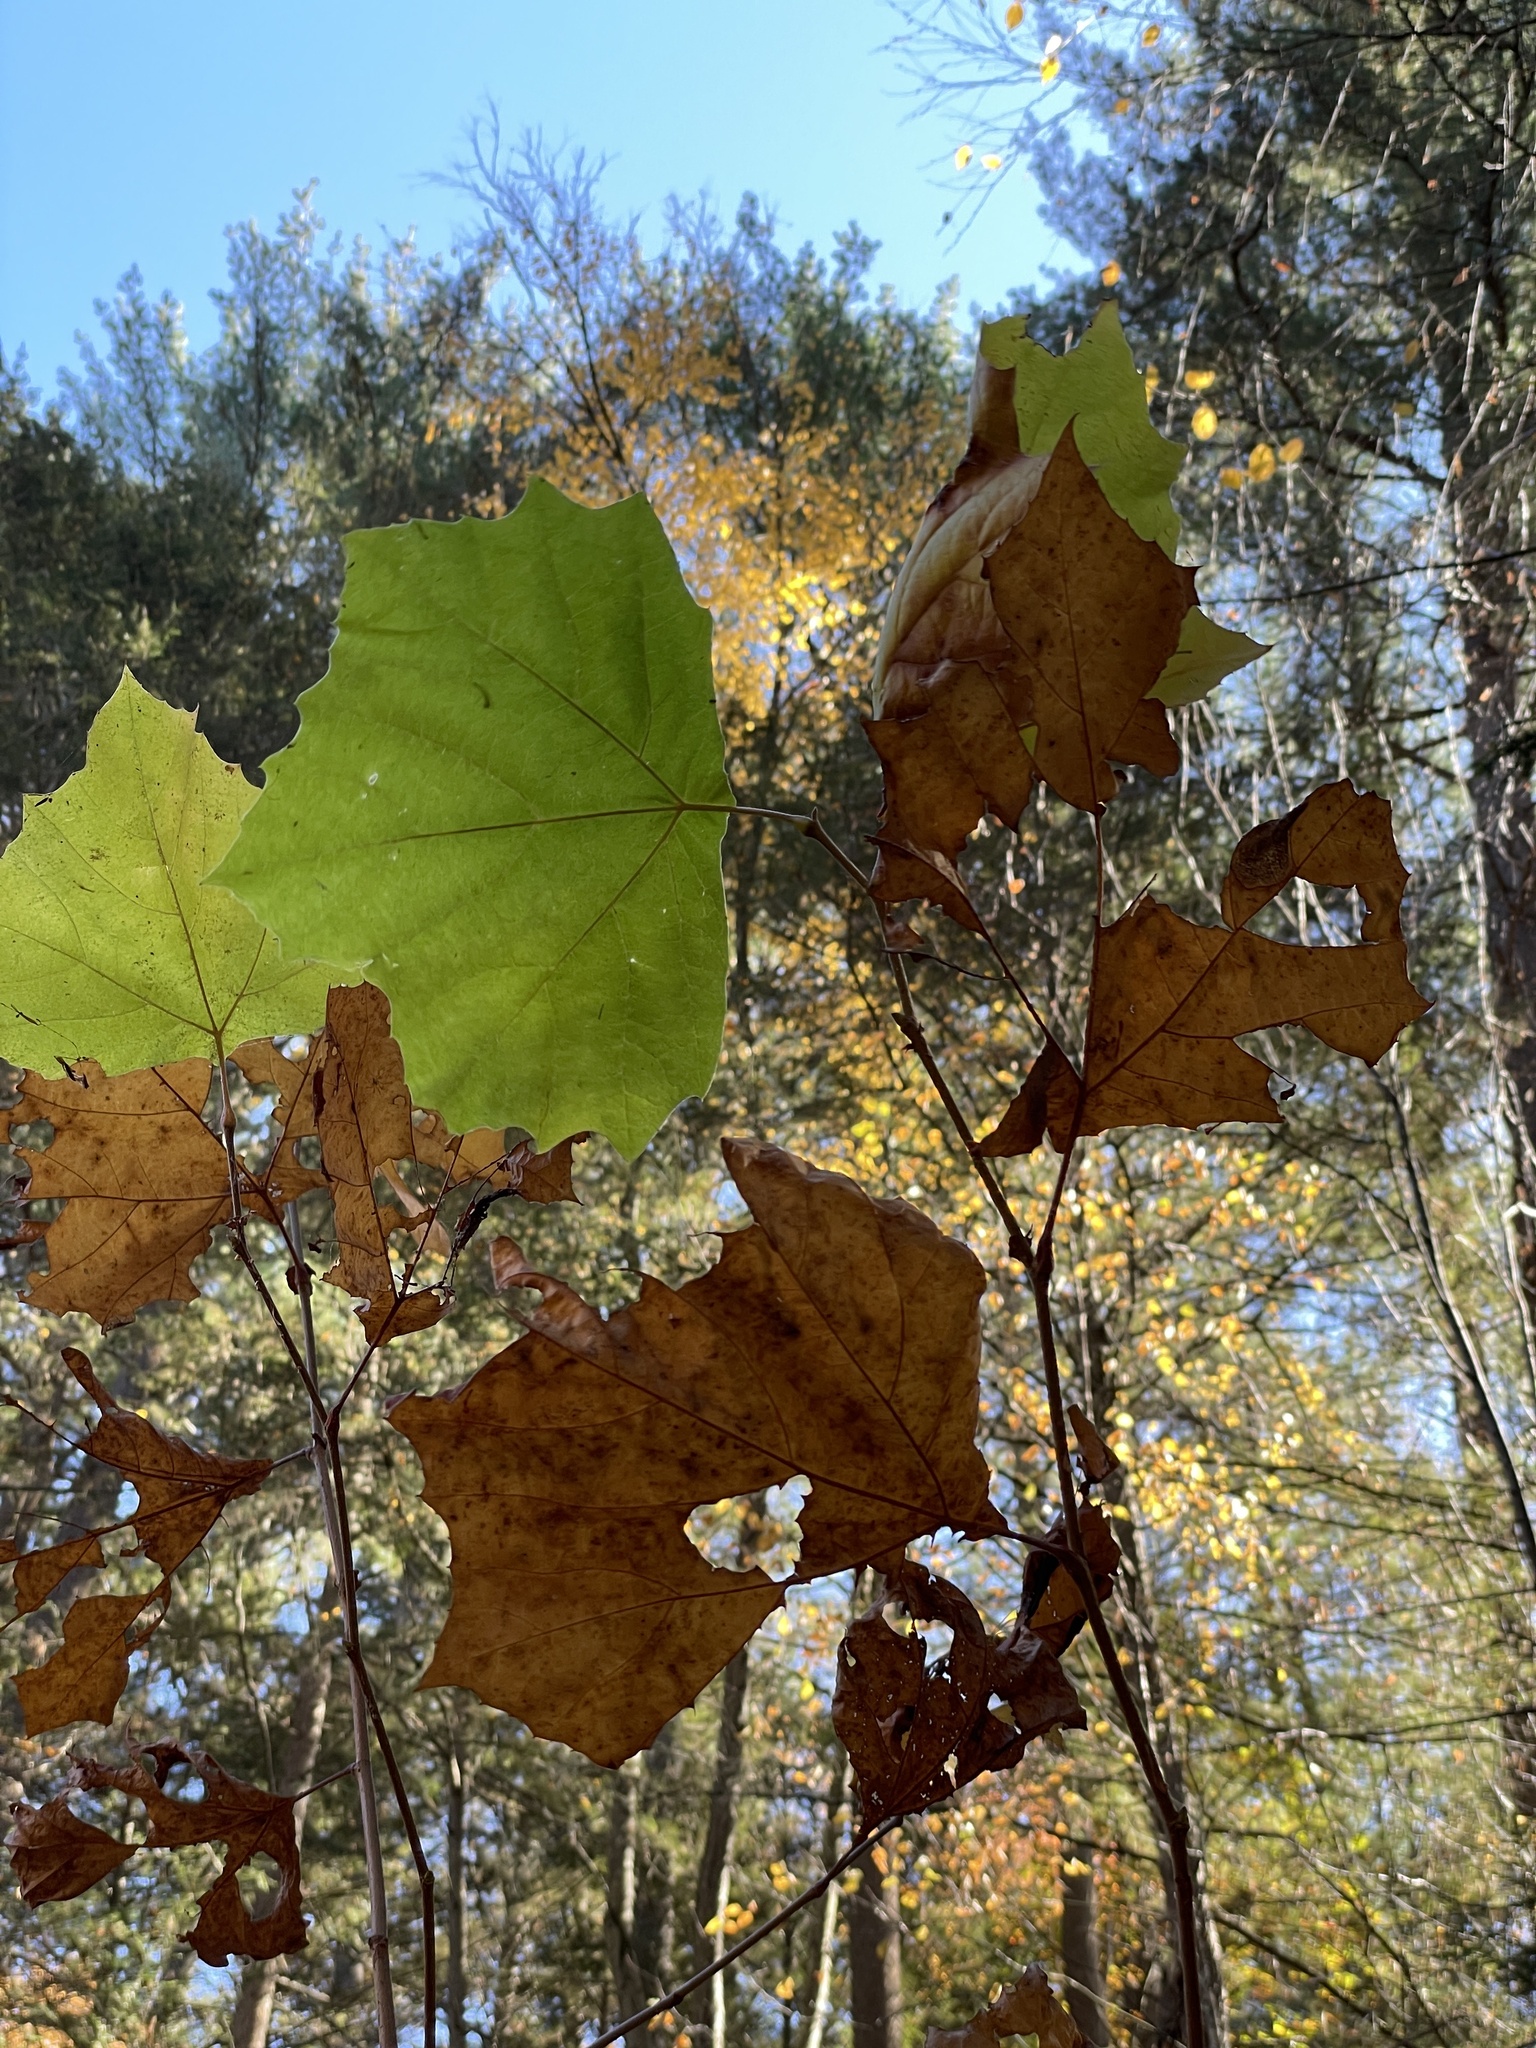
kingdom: Plantae
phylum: Tracheophyta
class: Magnoliopsida
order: Proteales
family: Platanaceae
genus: Platanus
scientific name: Platanus occidentalis
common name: American sycamore
